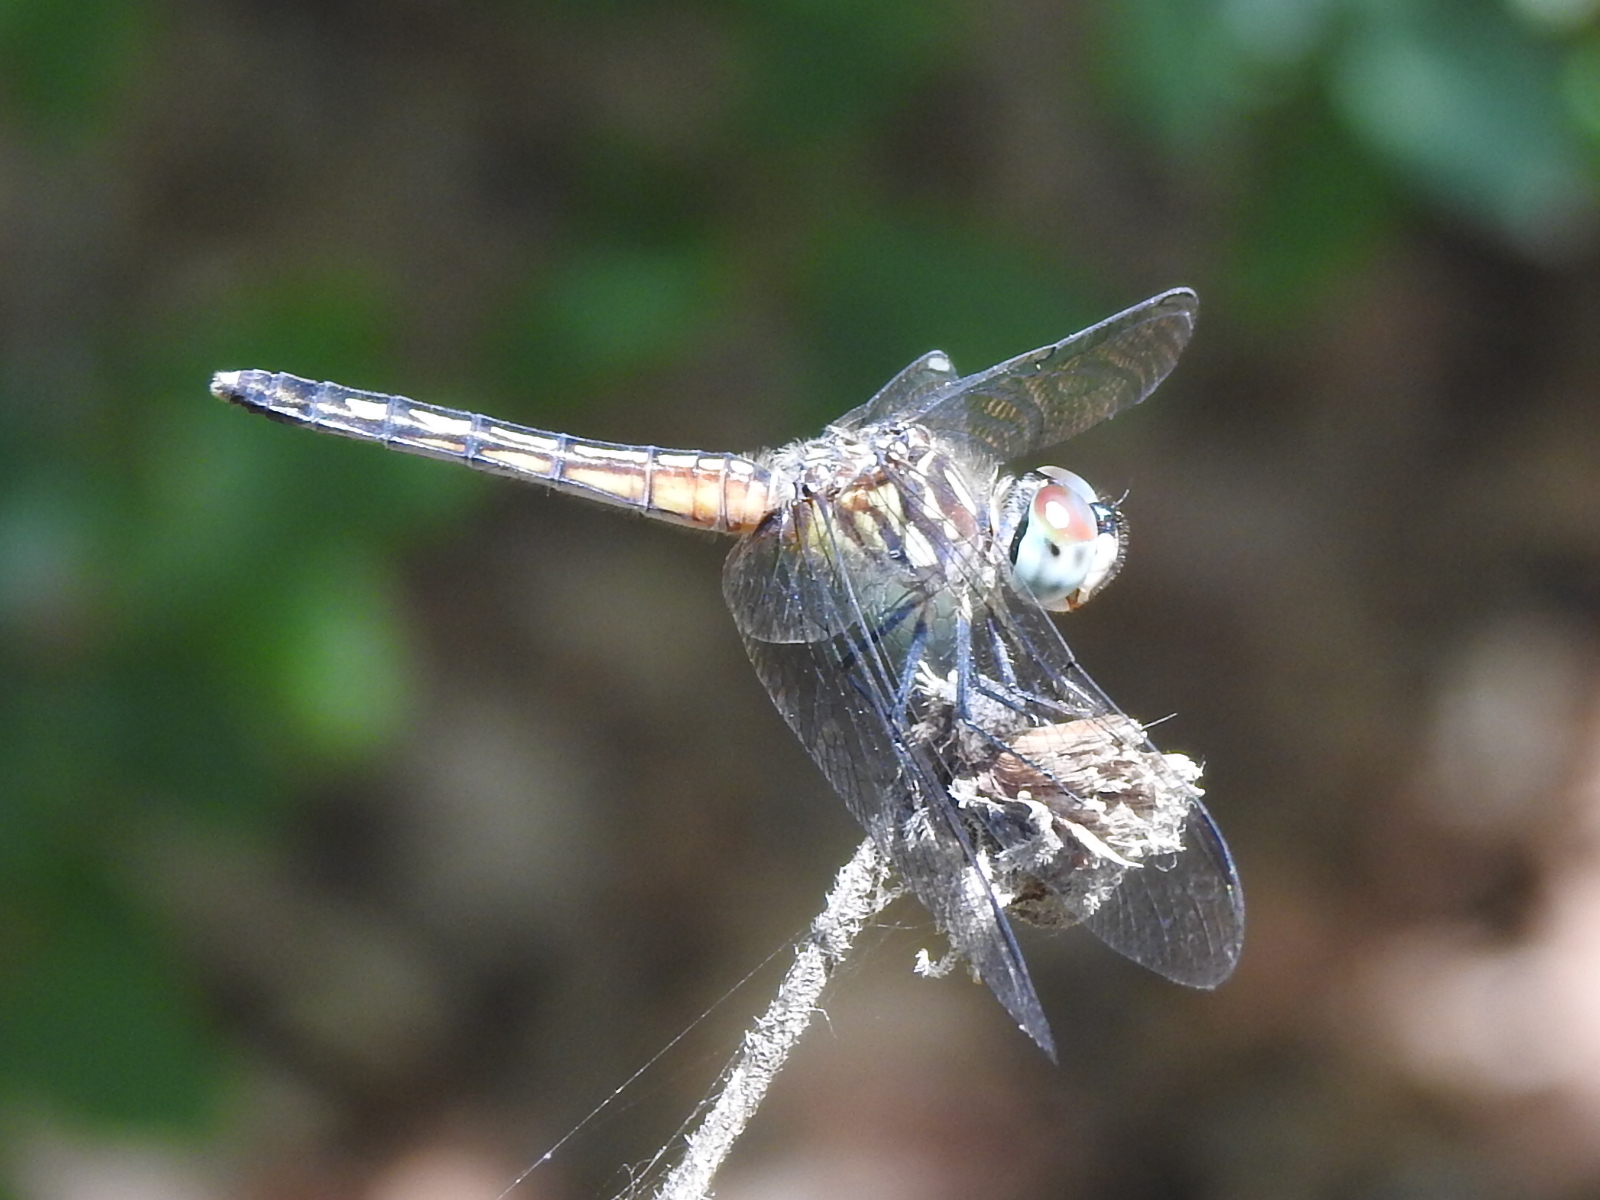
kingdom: Animalia
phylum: Arthropoda
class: Insecta
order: Odonata
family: Libellulidae
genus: Pachydiplax
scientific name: Pachydiplax longipennis
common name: Blue dasher
